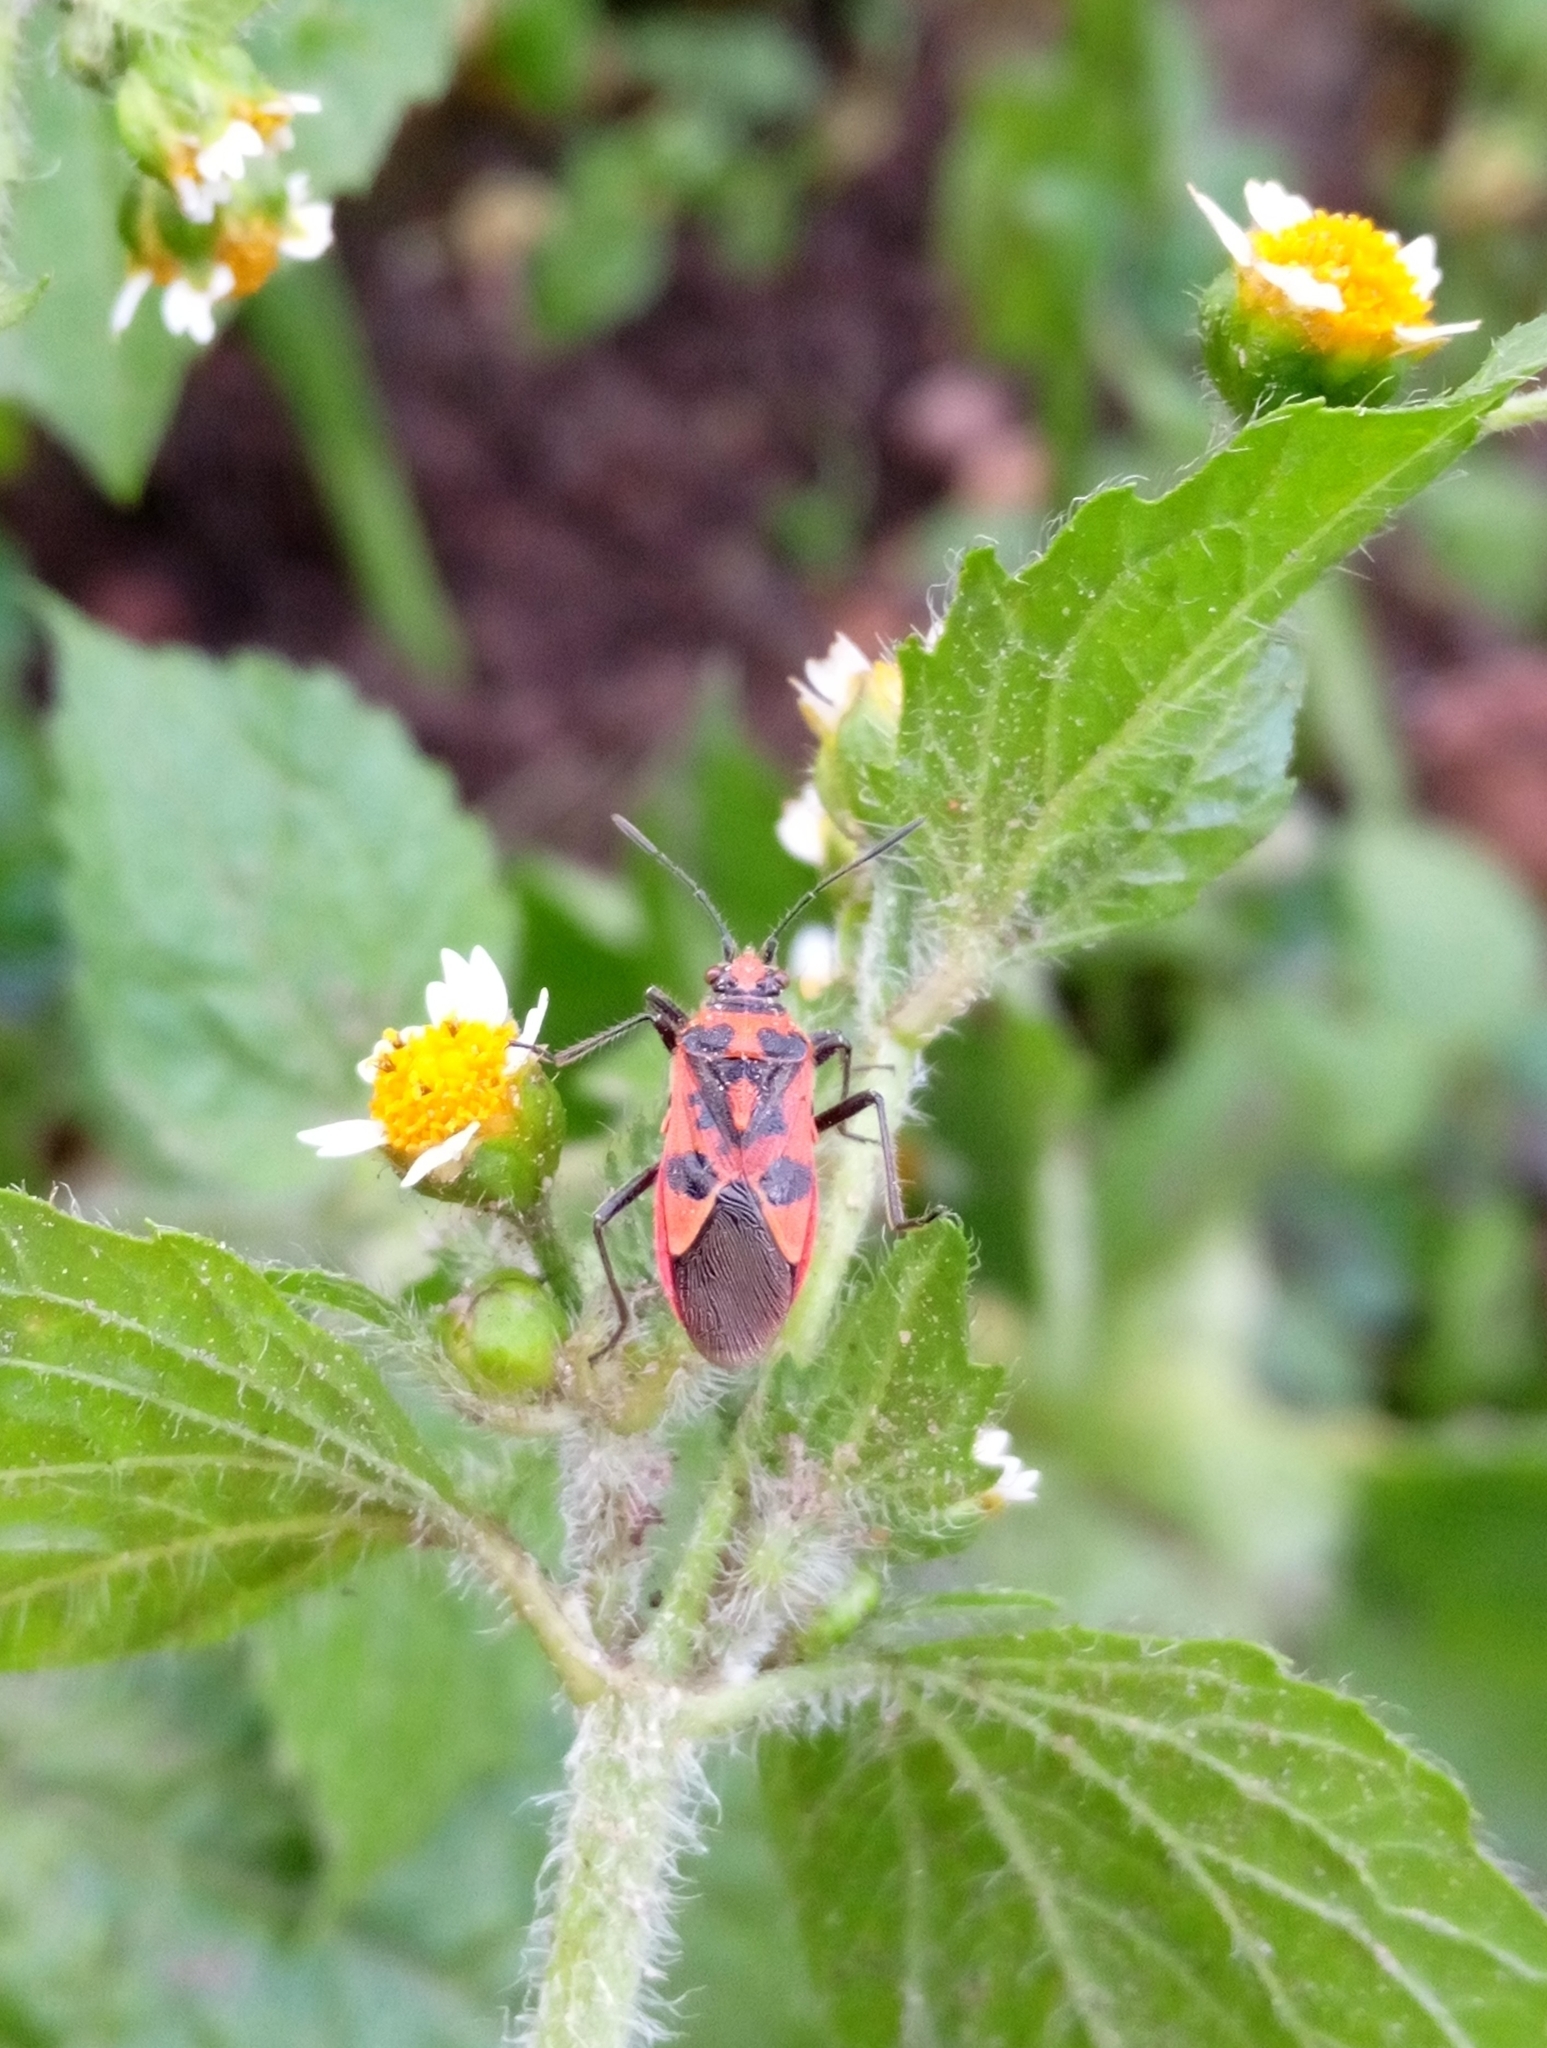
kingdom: Animalia
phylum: Arthropoda
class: Insecta
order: Hemiptera
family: Rhopalidae
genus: Corizus
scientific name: Corizus hyoscyami
